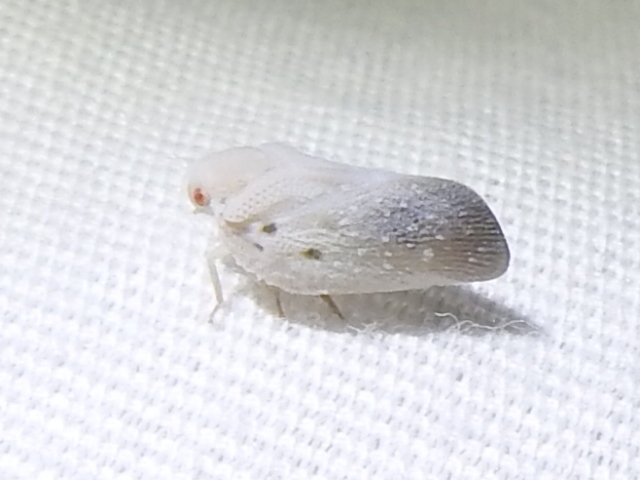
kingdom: Animalia
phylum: Arthropoda
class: Insecta
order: Hemiptera
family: Flatidae
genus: Metcalfa
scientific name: Metcalfa pruinosa
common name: Citrus flatid planthopper
